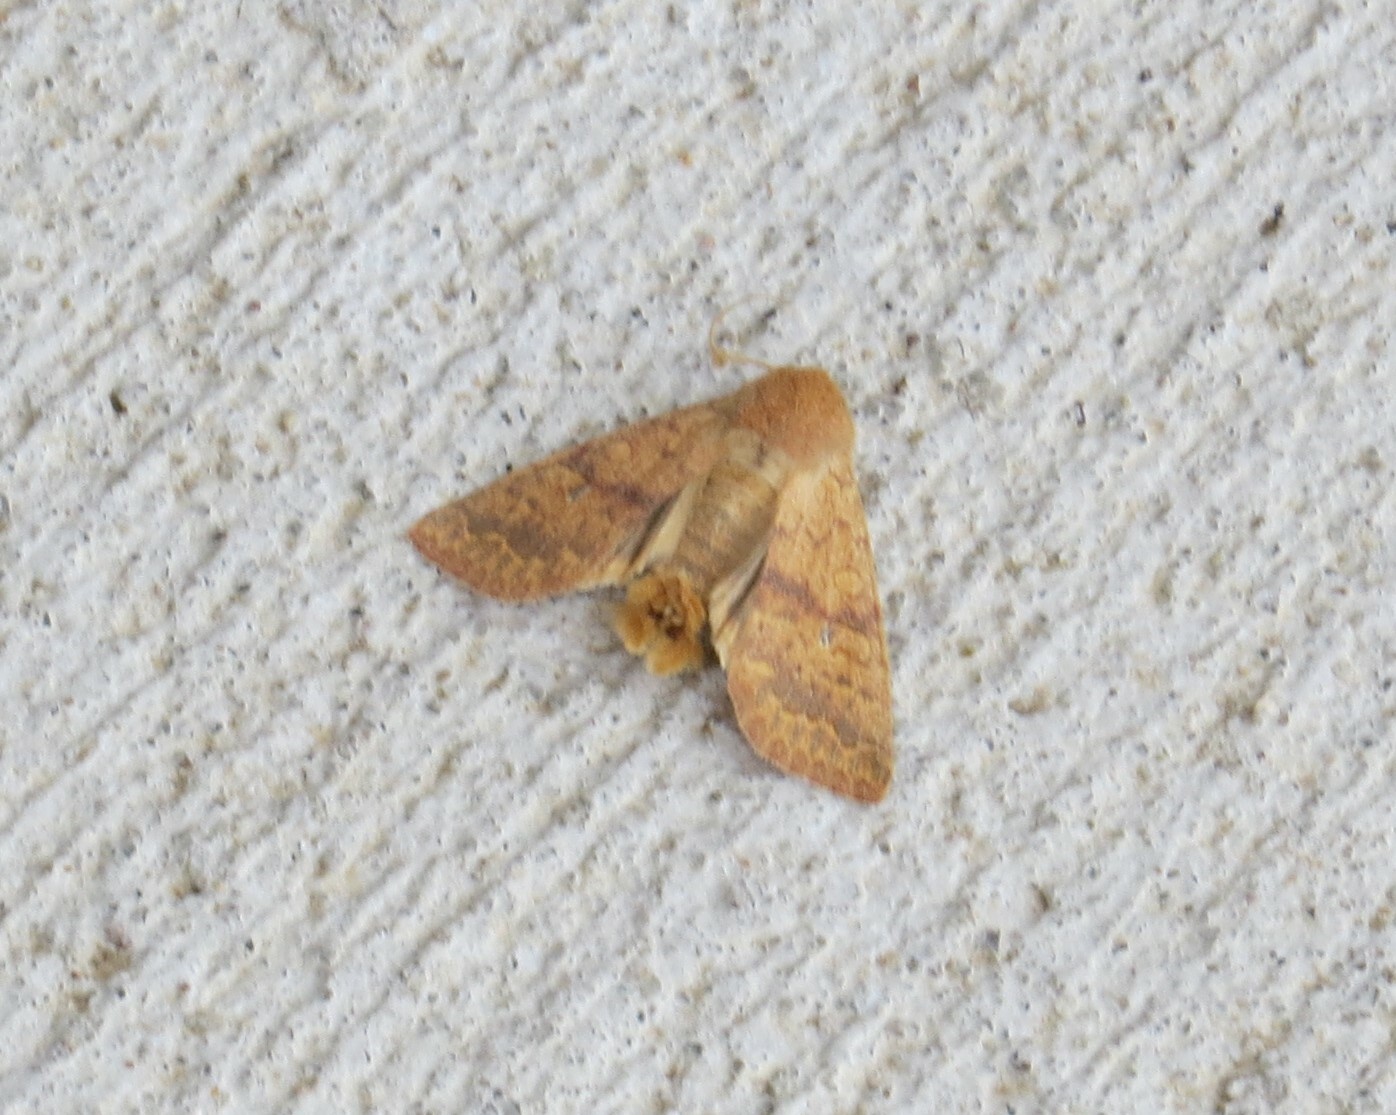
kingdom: Animalia
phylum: Arthropoda
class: Insecta
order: Lepidoptera
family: Noctuidae
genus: Agrochola
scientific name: Agrochola bicolorago
